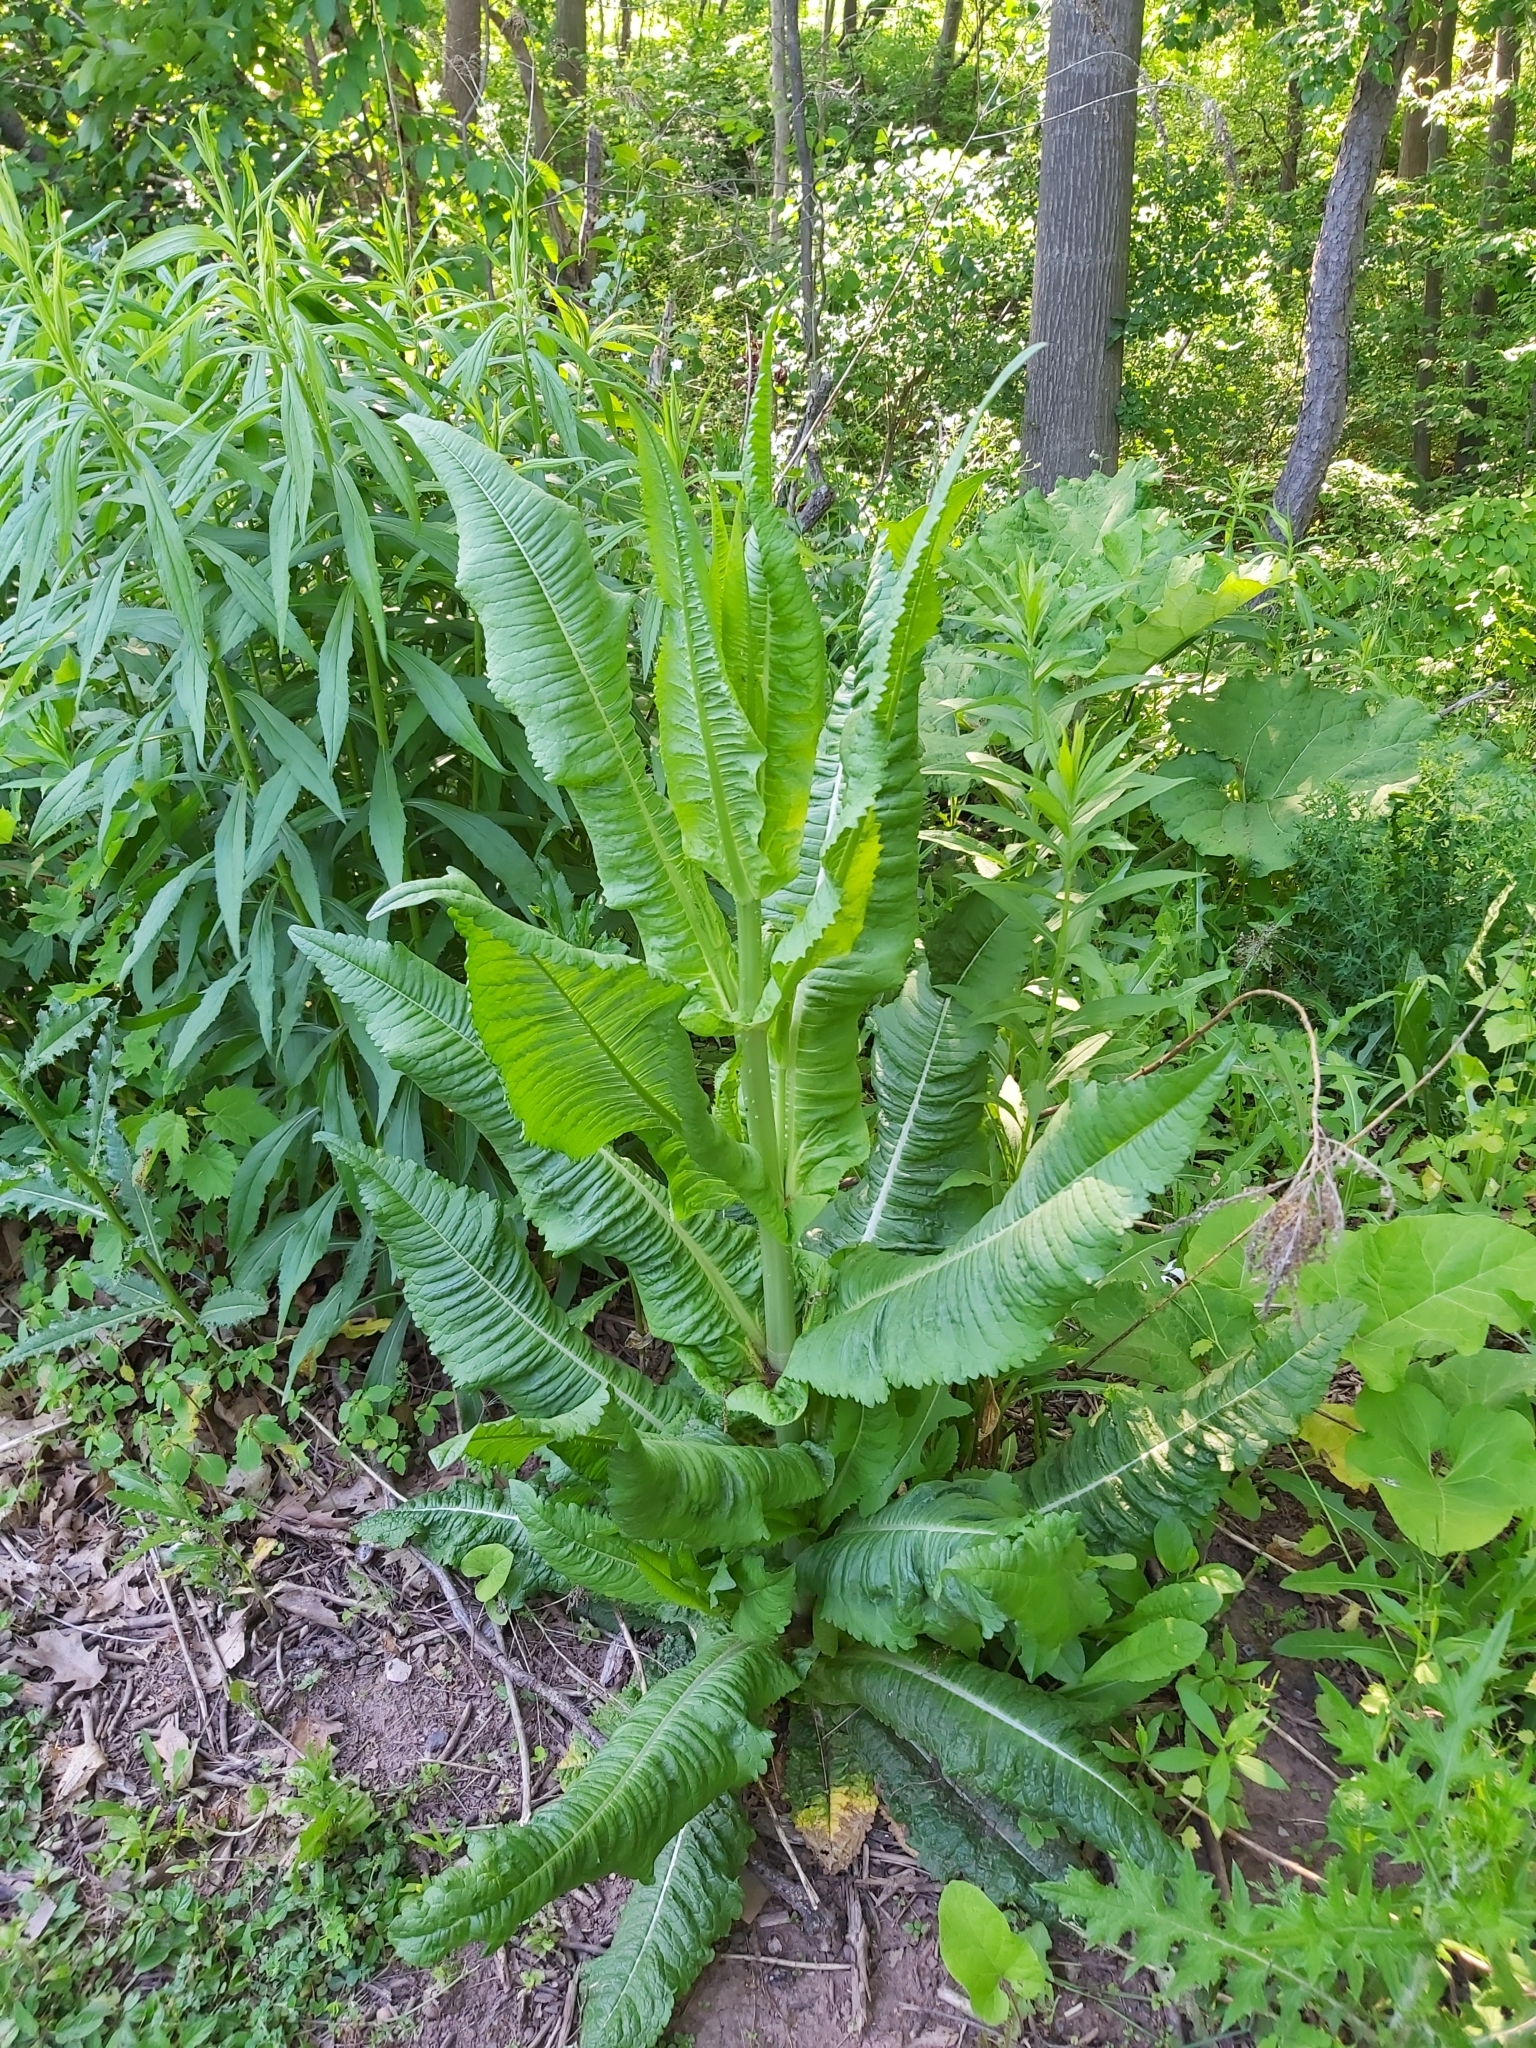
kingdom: Plantae
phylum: Tracheophyta
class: Magnoliopsida
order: Dipsacales
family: Caprifoliaceae
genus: Dipsacus
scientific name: Dipsacus fullonum
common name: Teasel
